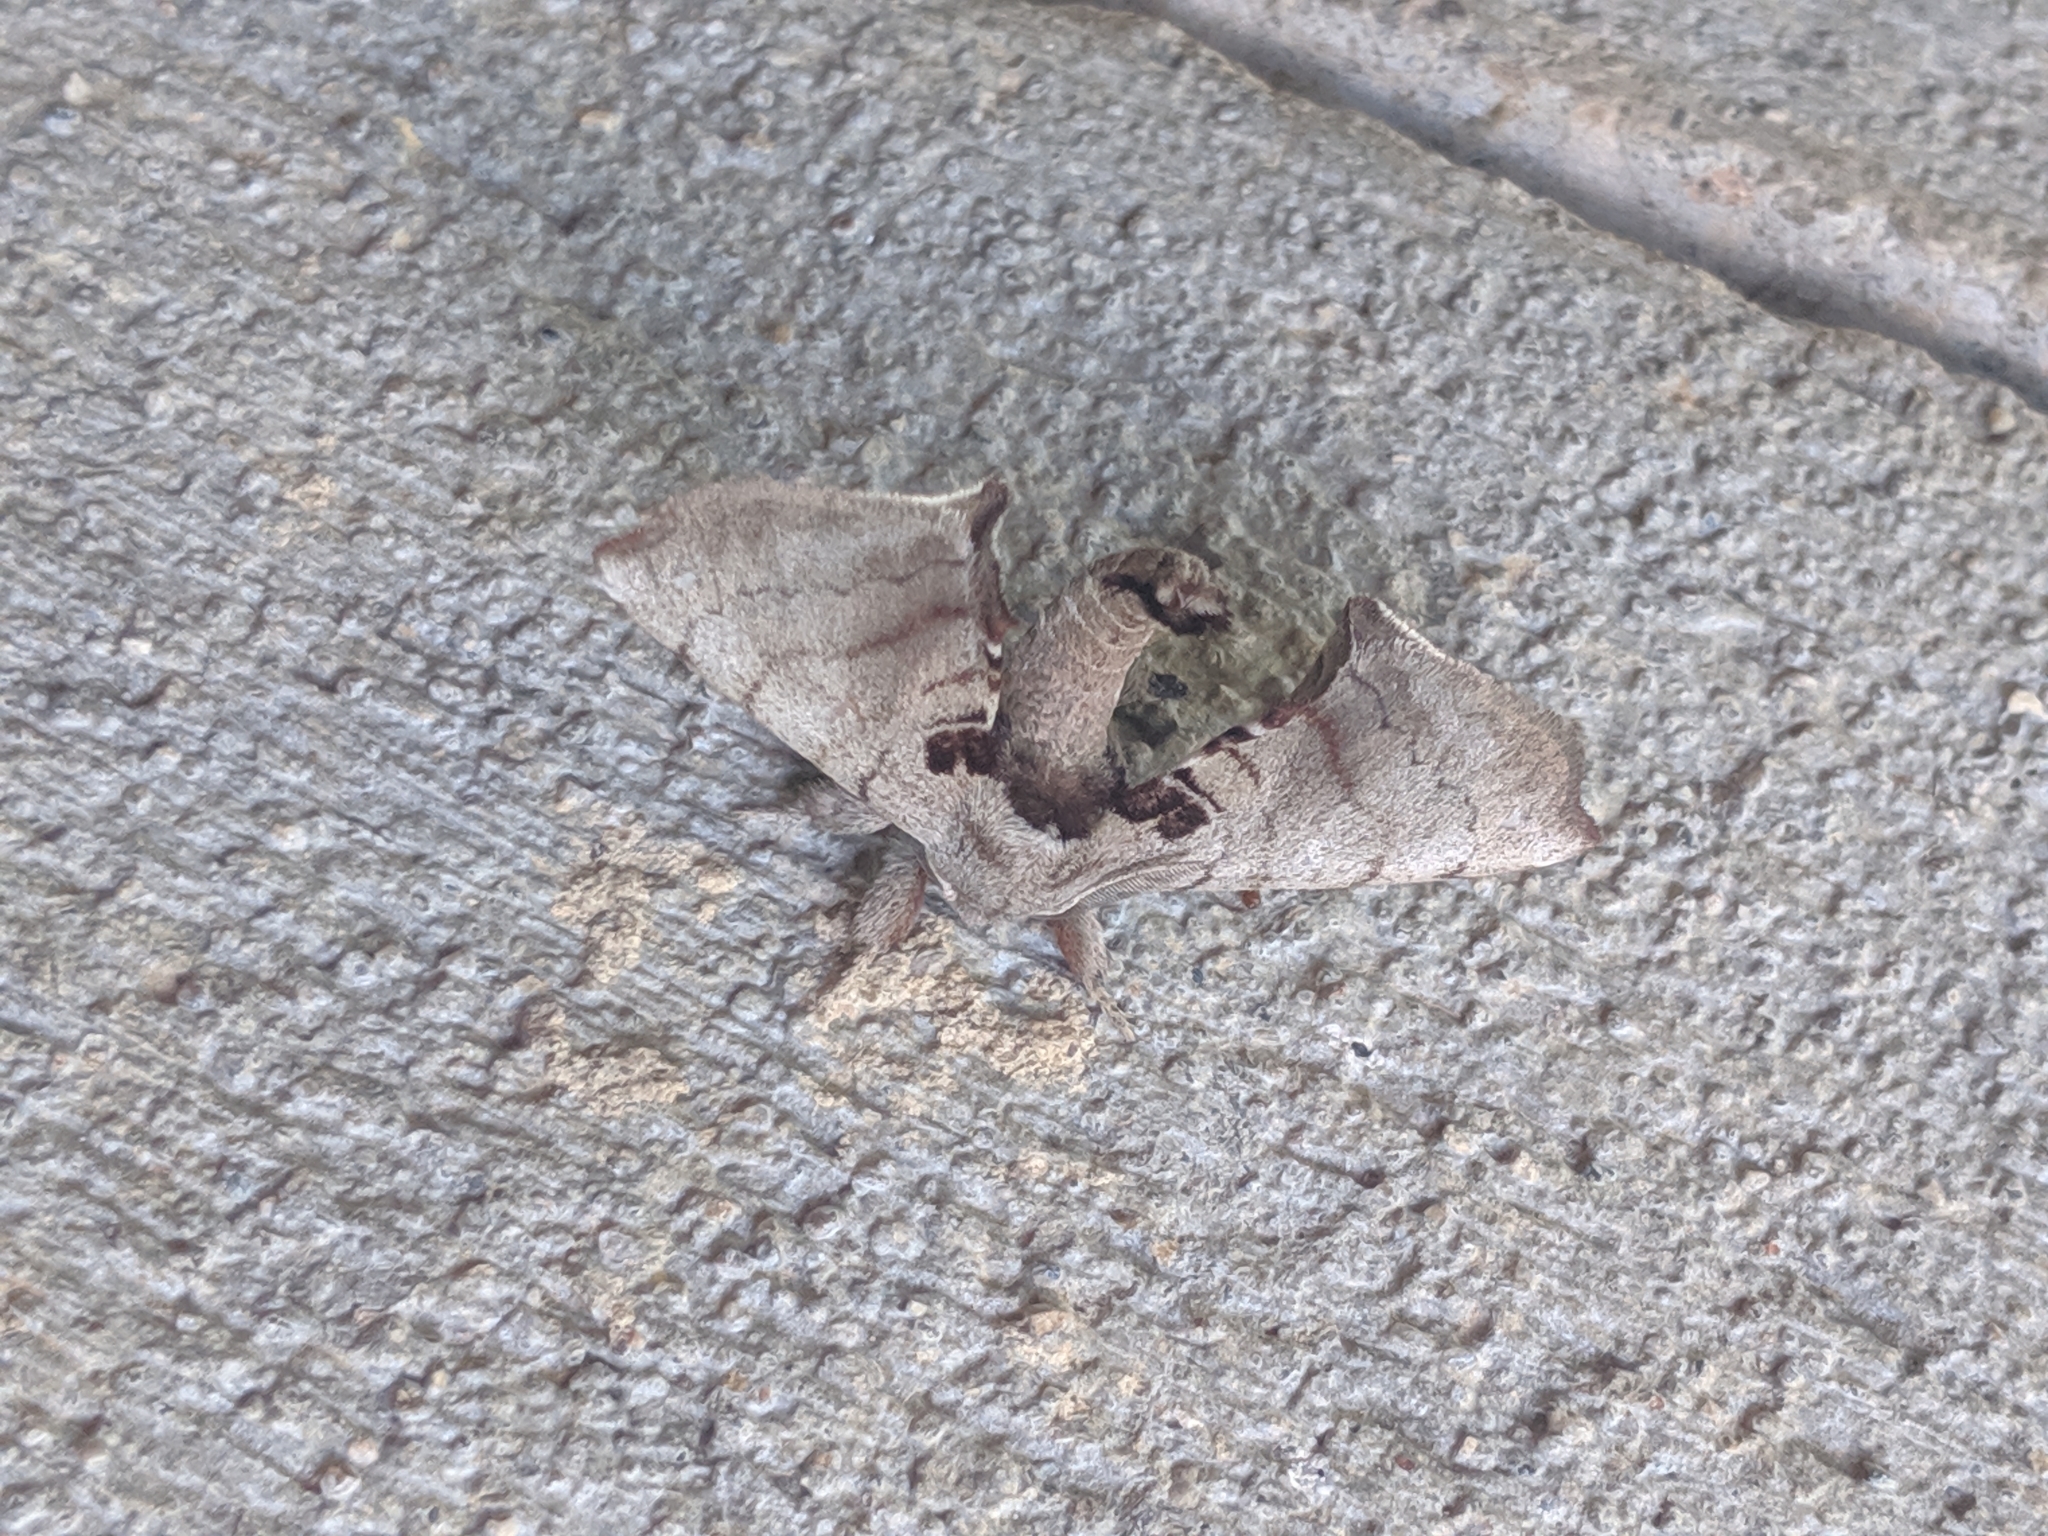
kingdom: Animalia
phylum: Arthropoda
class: Insecta
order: Lepidoptera
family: Apatelodidae
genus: Hygrochroa
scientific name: Hygrochroa Apatelodes torrefacta
